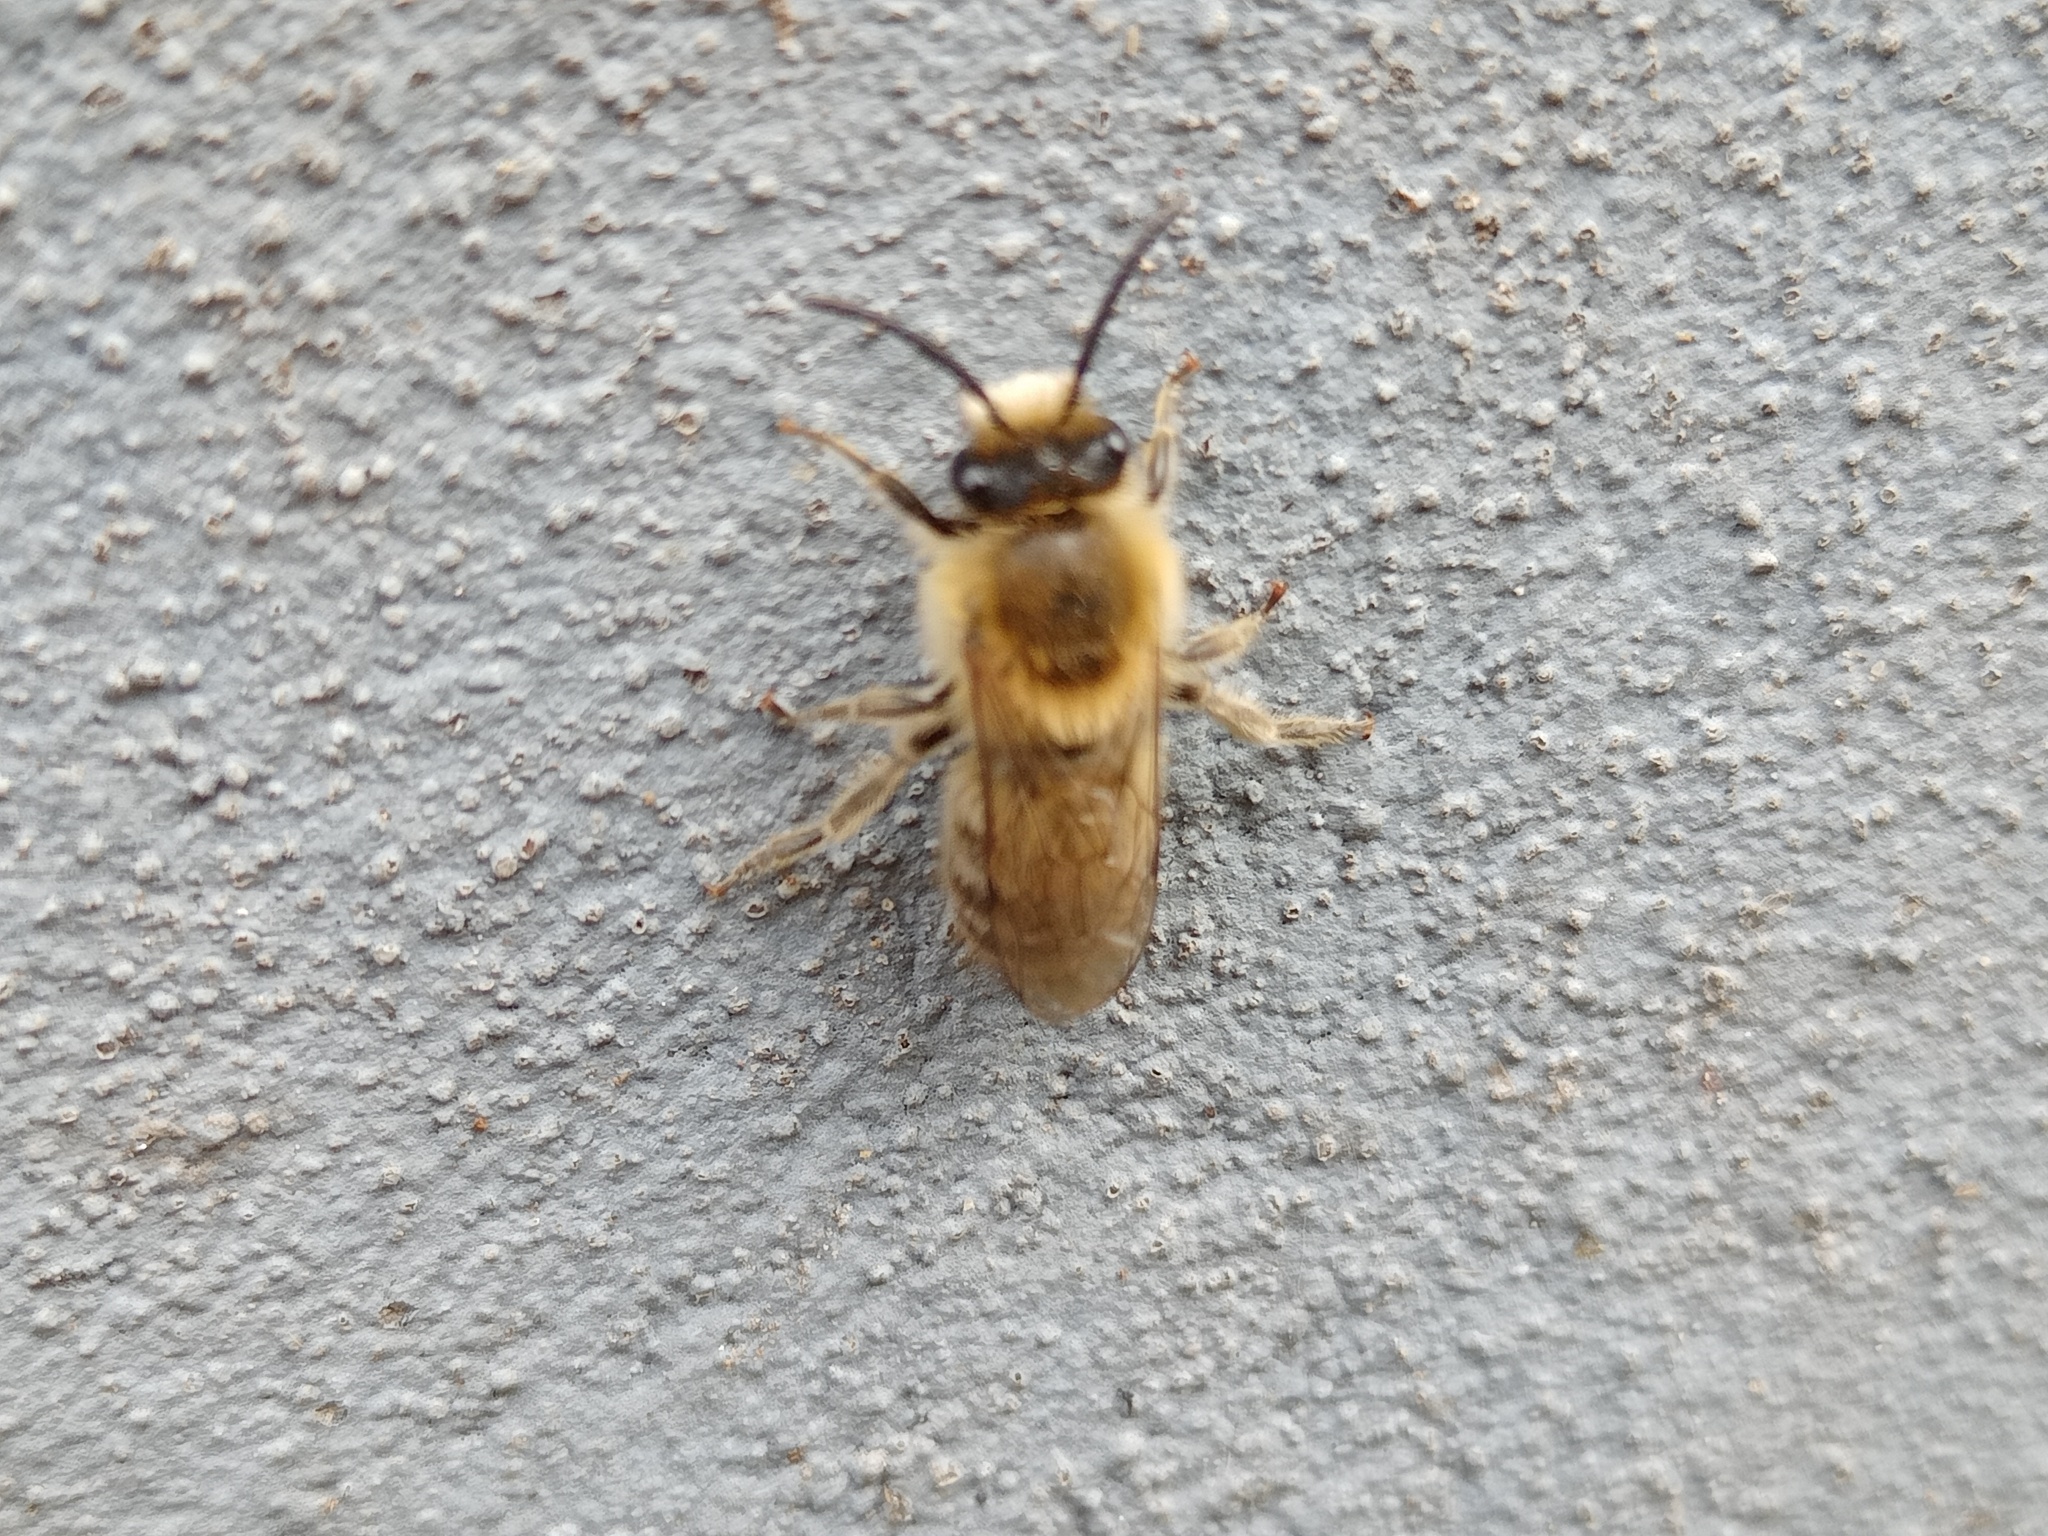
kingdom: Animalia
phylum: Arthropoda
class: Insecta
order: Hymenoptera
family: Colletidae
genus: Colletes
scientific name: Colletes cunicularius
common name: Early colletes
